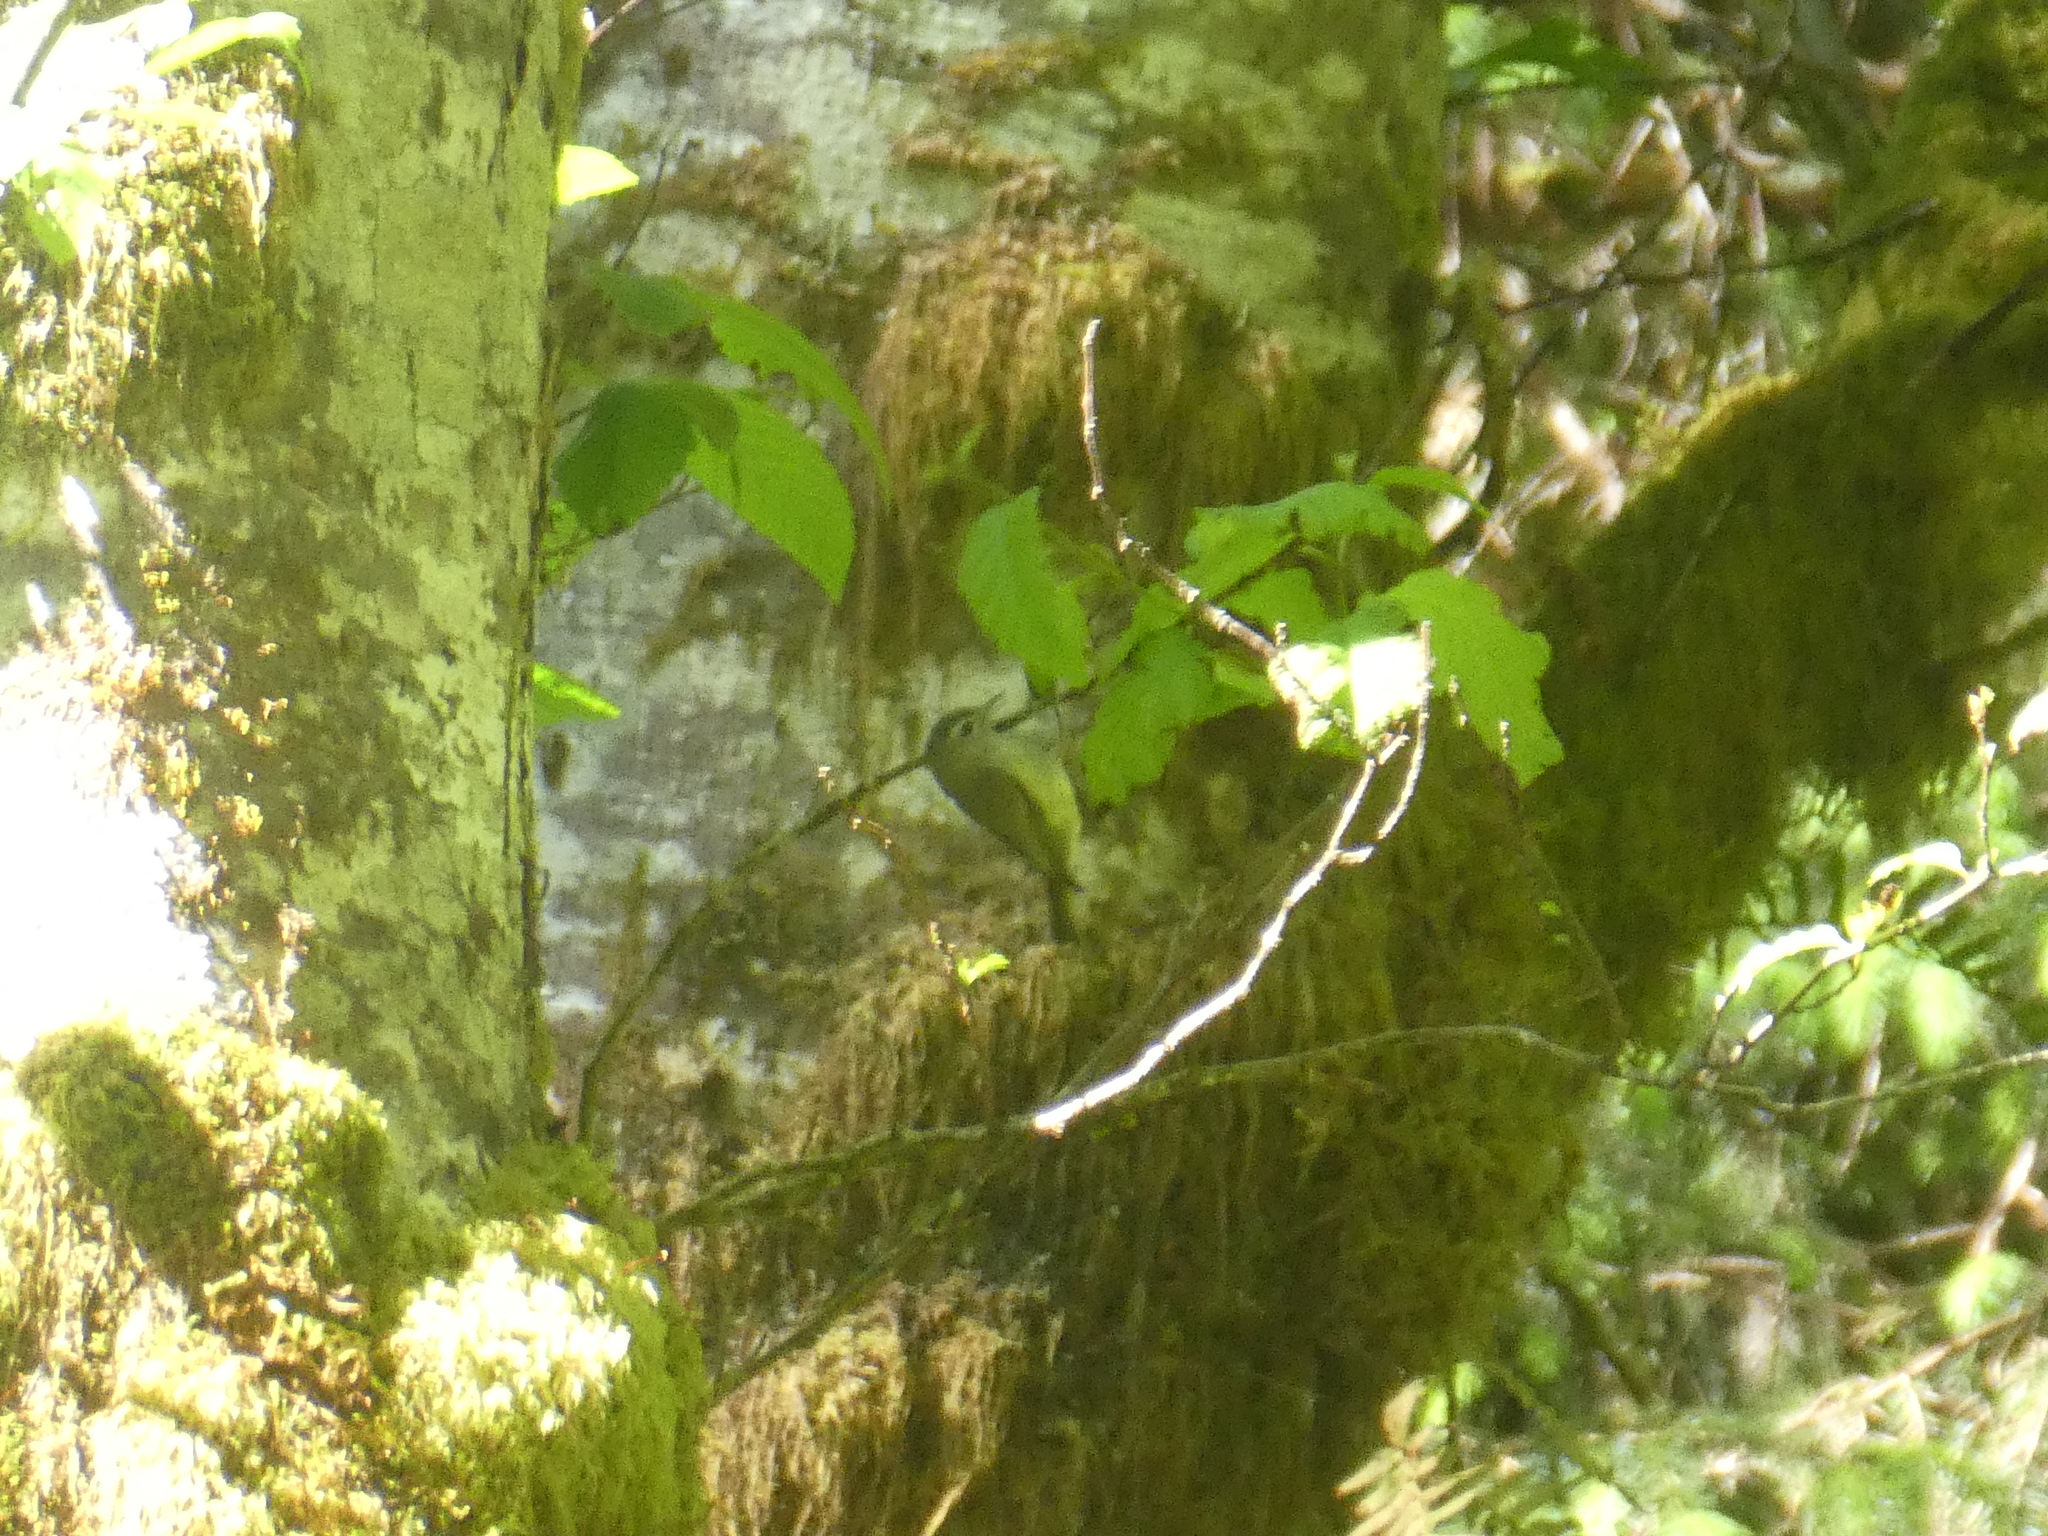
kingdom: Animalia
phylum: Chordata
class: Aves
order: Passeriformes
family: Vireonidae
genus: Vireo
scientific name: Vireo gilvus
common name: Warbling vireo
